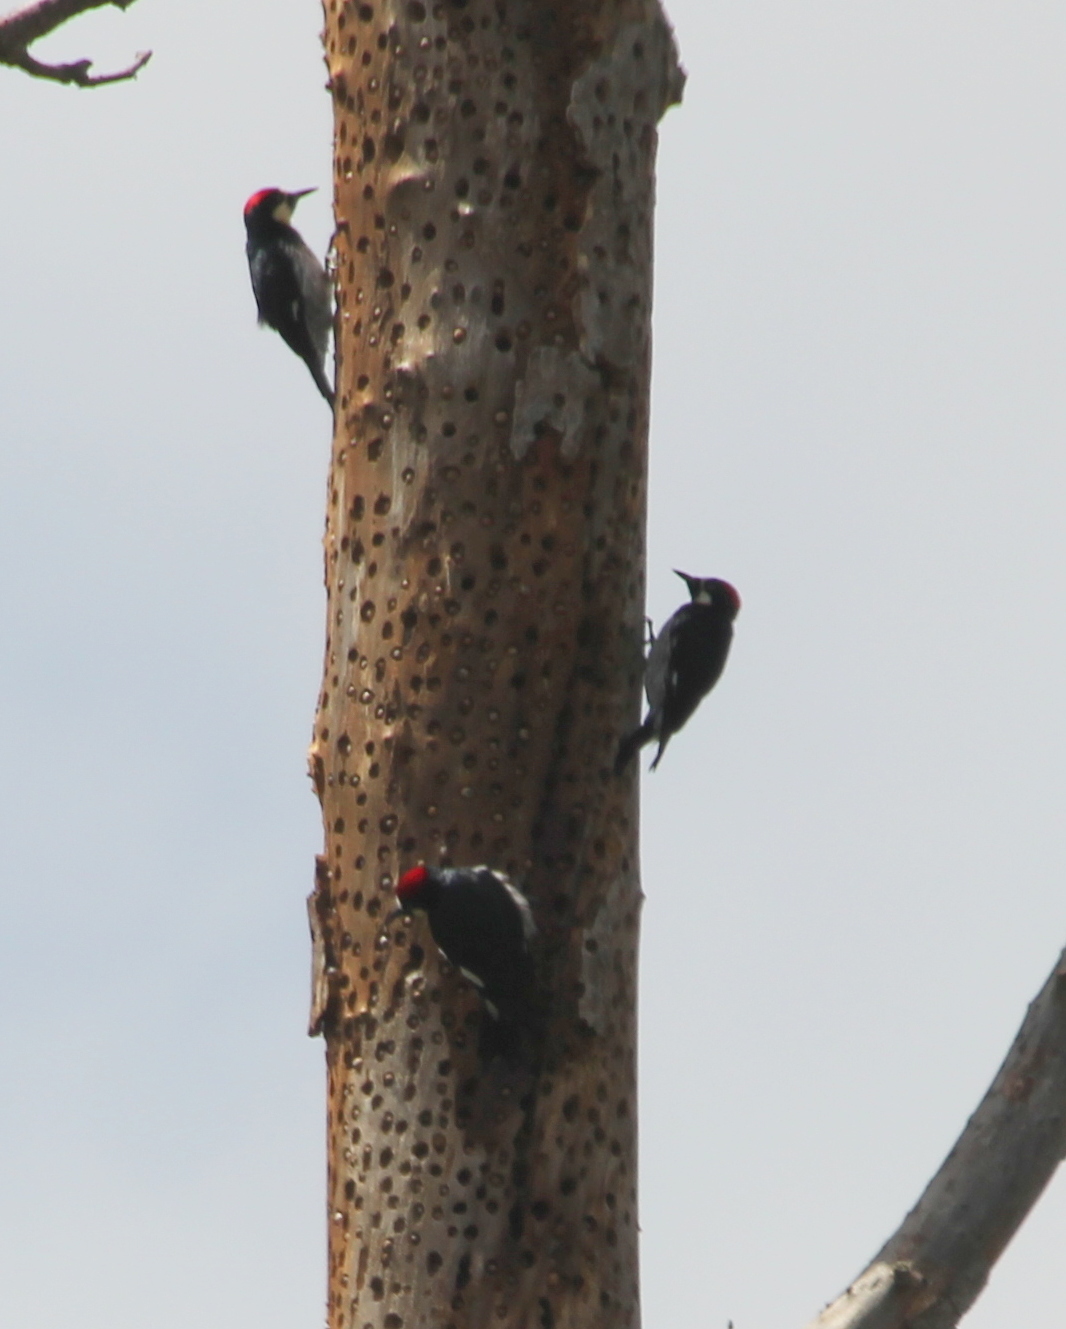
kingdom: Animalia
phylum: Chordata
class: Aves
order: Piciformes
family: Picidae
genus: Melanerpes
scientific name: Melanerpes formicivorus
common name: Acorn woodpecker
